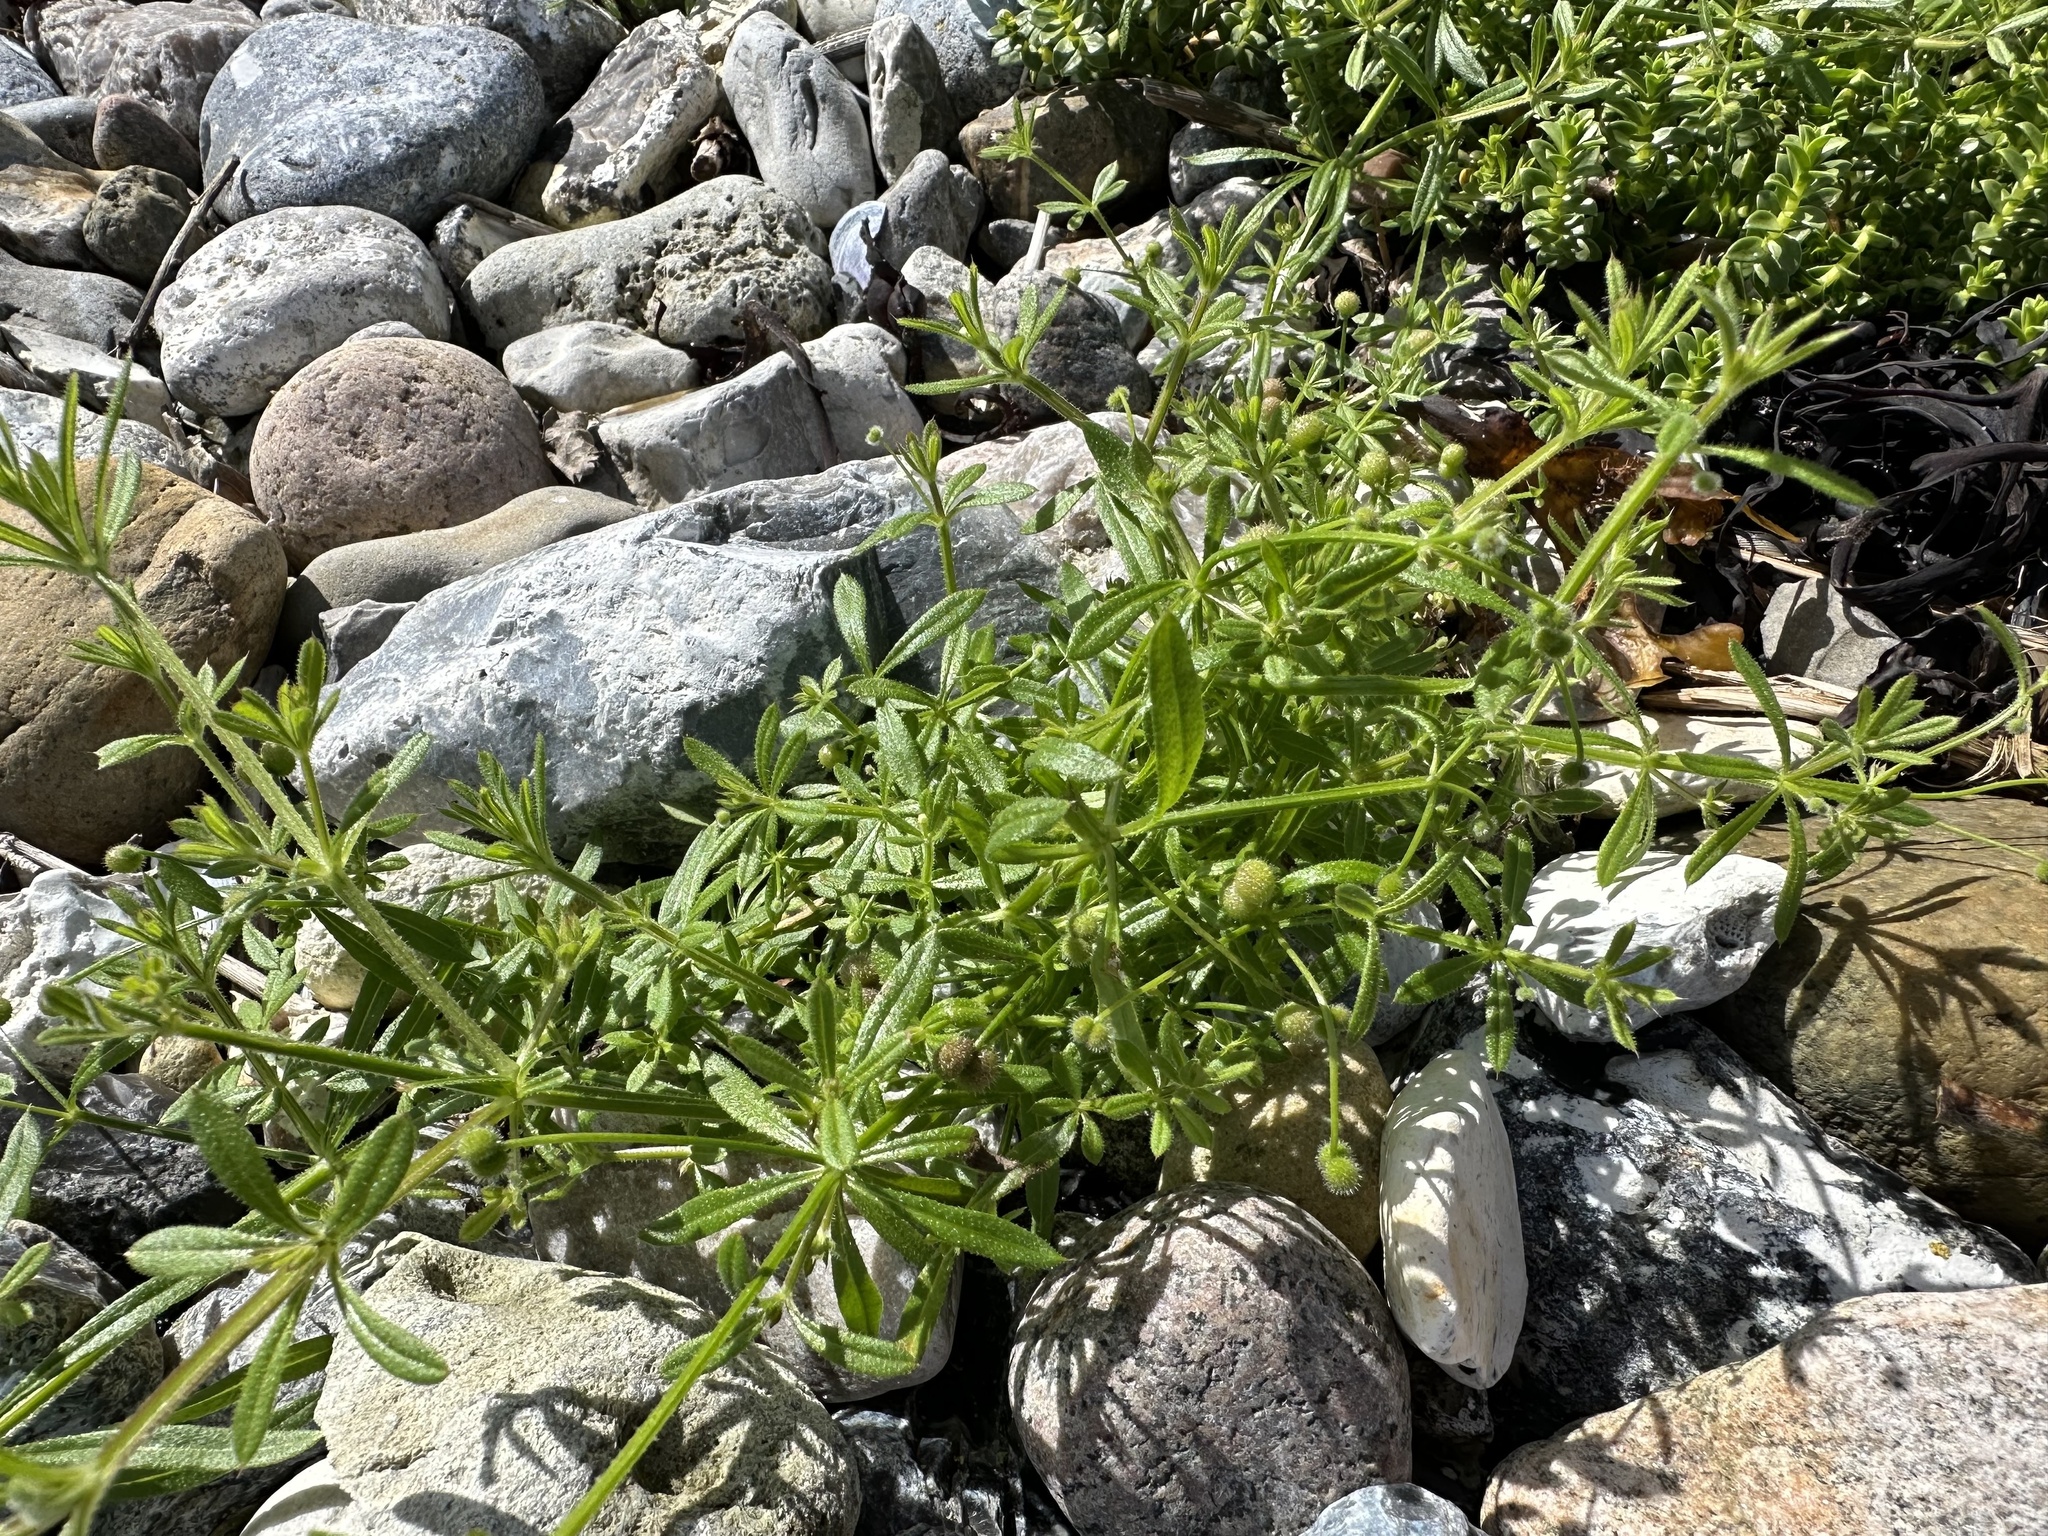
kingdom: Plantae
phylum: Tracheophyta
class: Magnoliopsida
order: Gentianales
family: Rubiaceae
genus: Galium
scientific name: Galium aparine
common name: Cleavers
